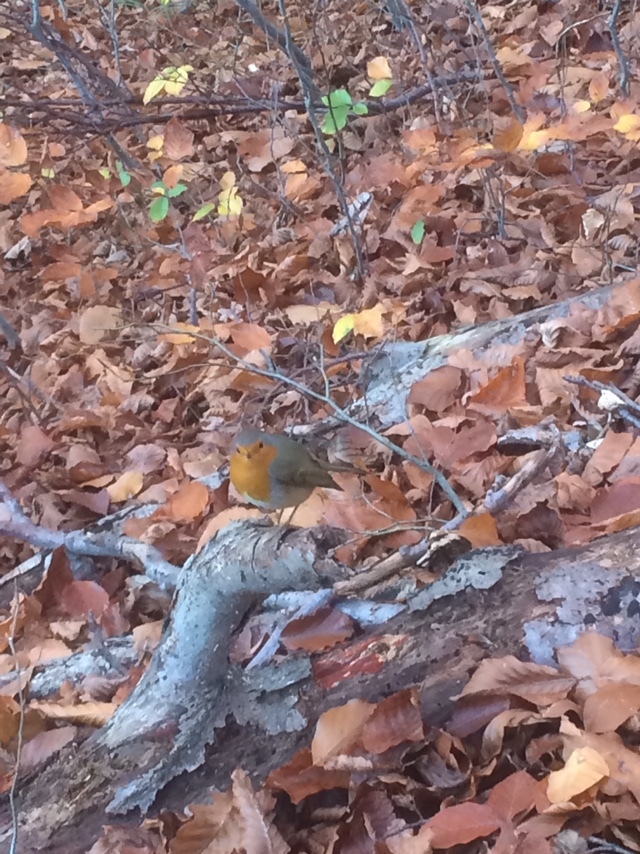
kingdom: Animalia
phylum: Chordata
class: Aves
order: Passeriformes
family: Muscicapidae
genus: Erithacus
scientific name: Erithacus rubecula
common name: European robin
